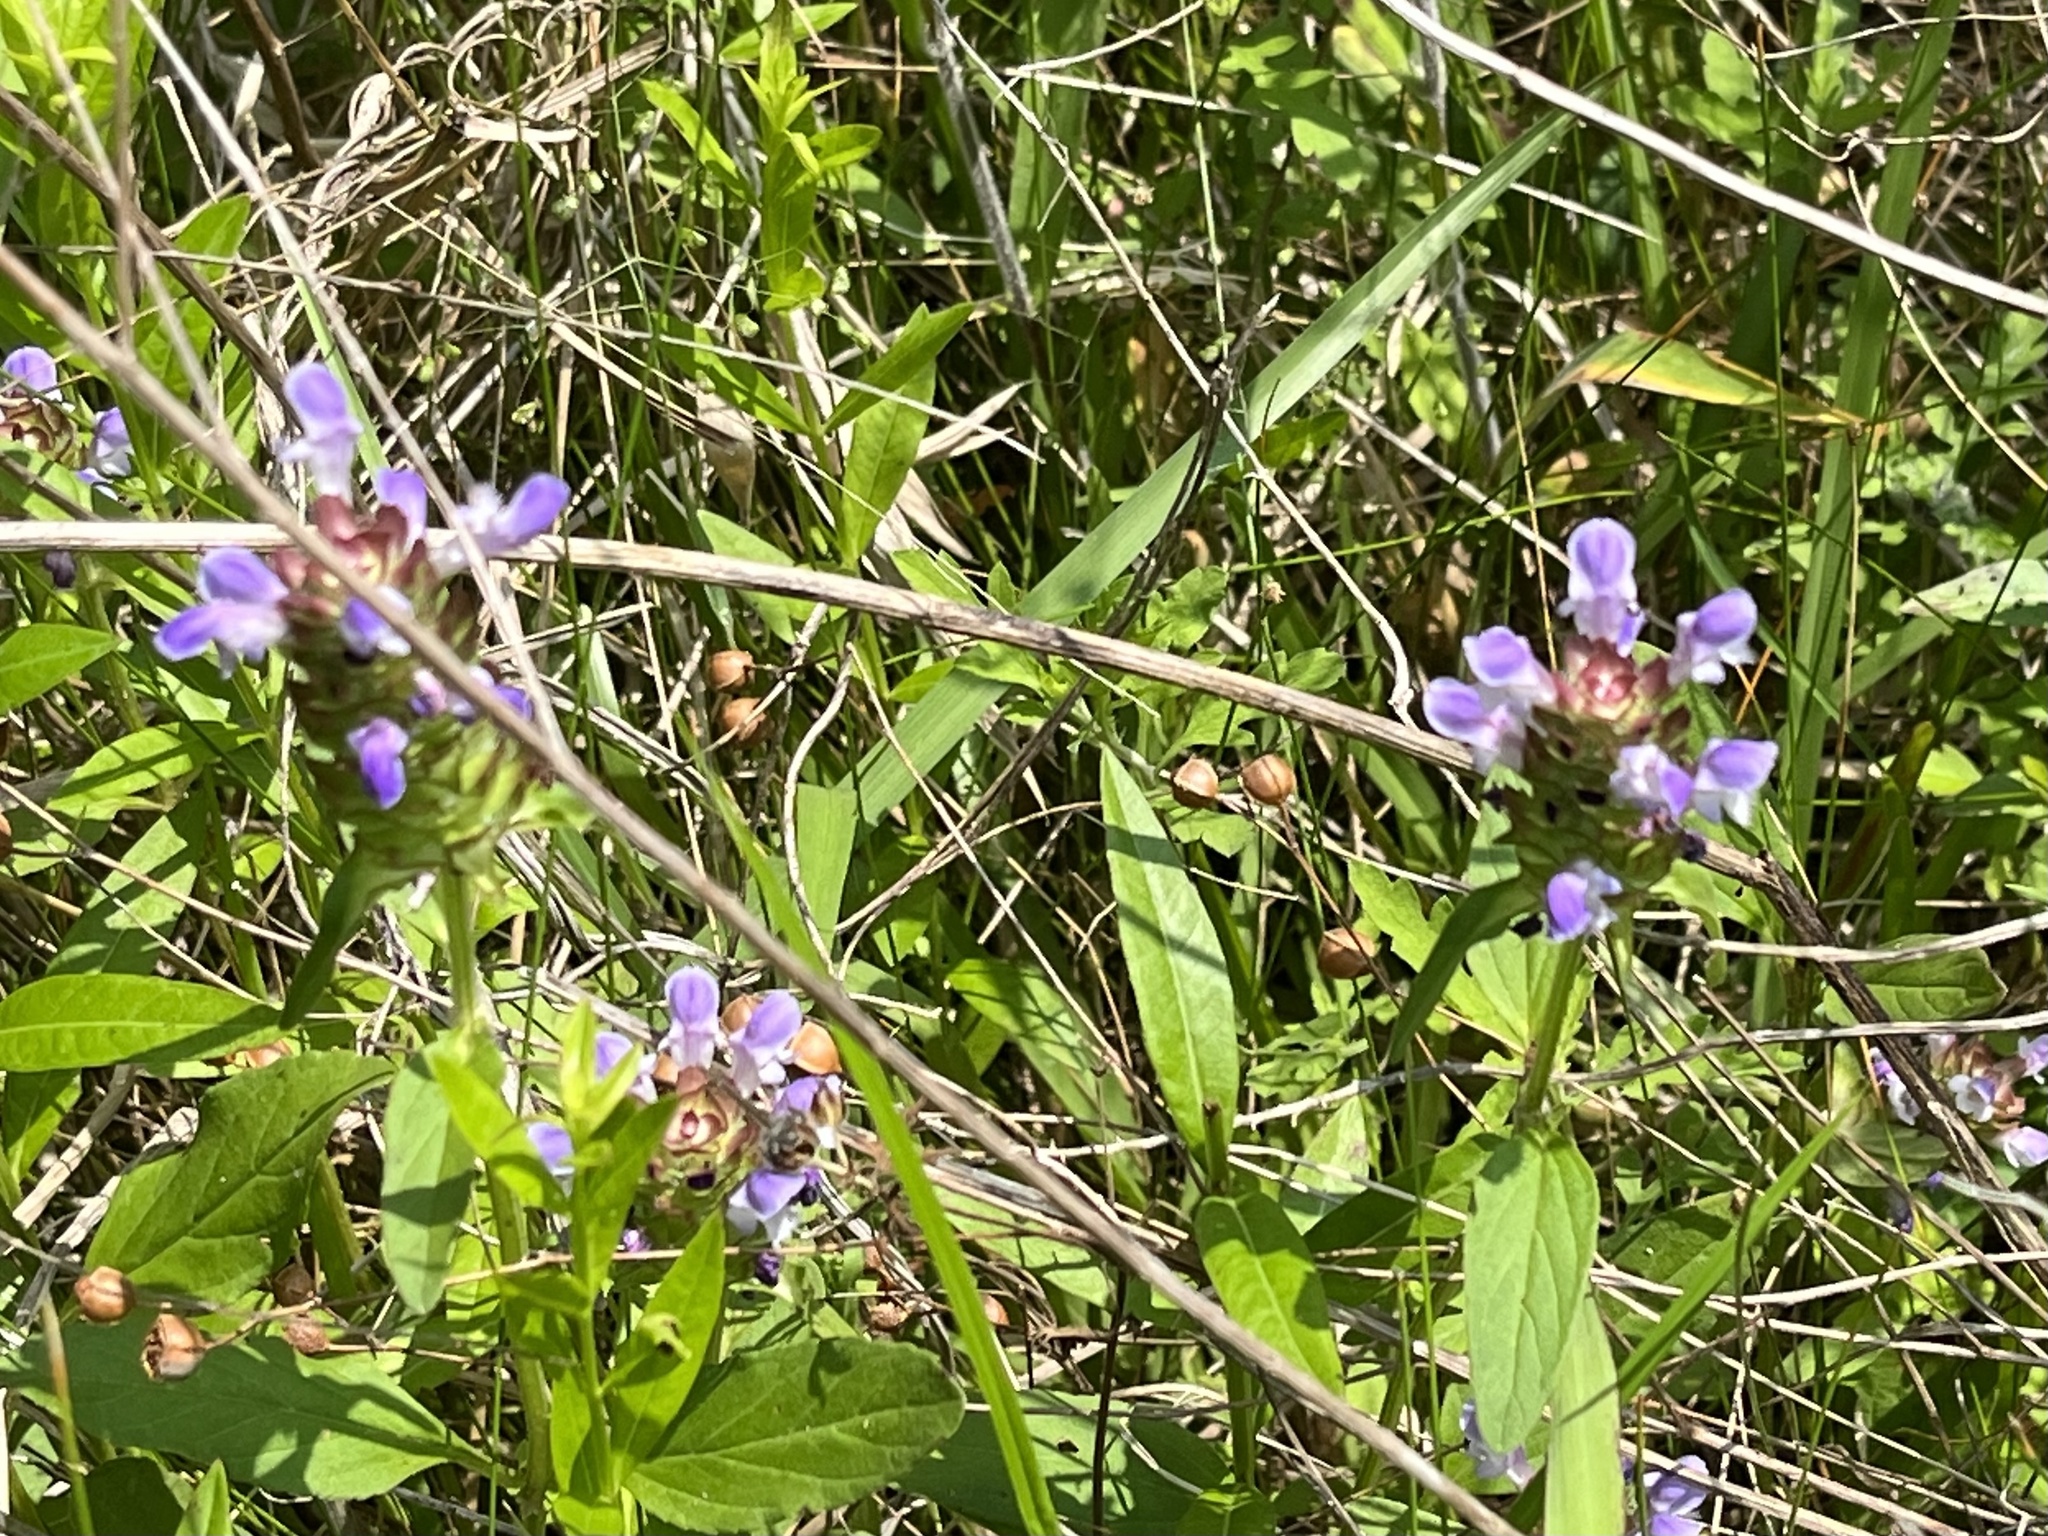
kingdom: Plantae
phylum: Tracheophyta
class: Magnoliopsida
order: Lamiales
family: Lamiaceae
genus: Prunella
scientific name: Prunella vulgaris
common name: Heal-all
